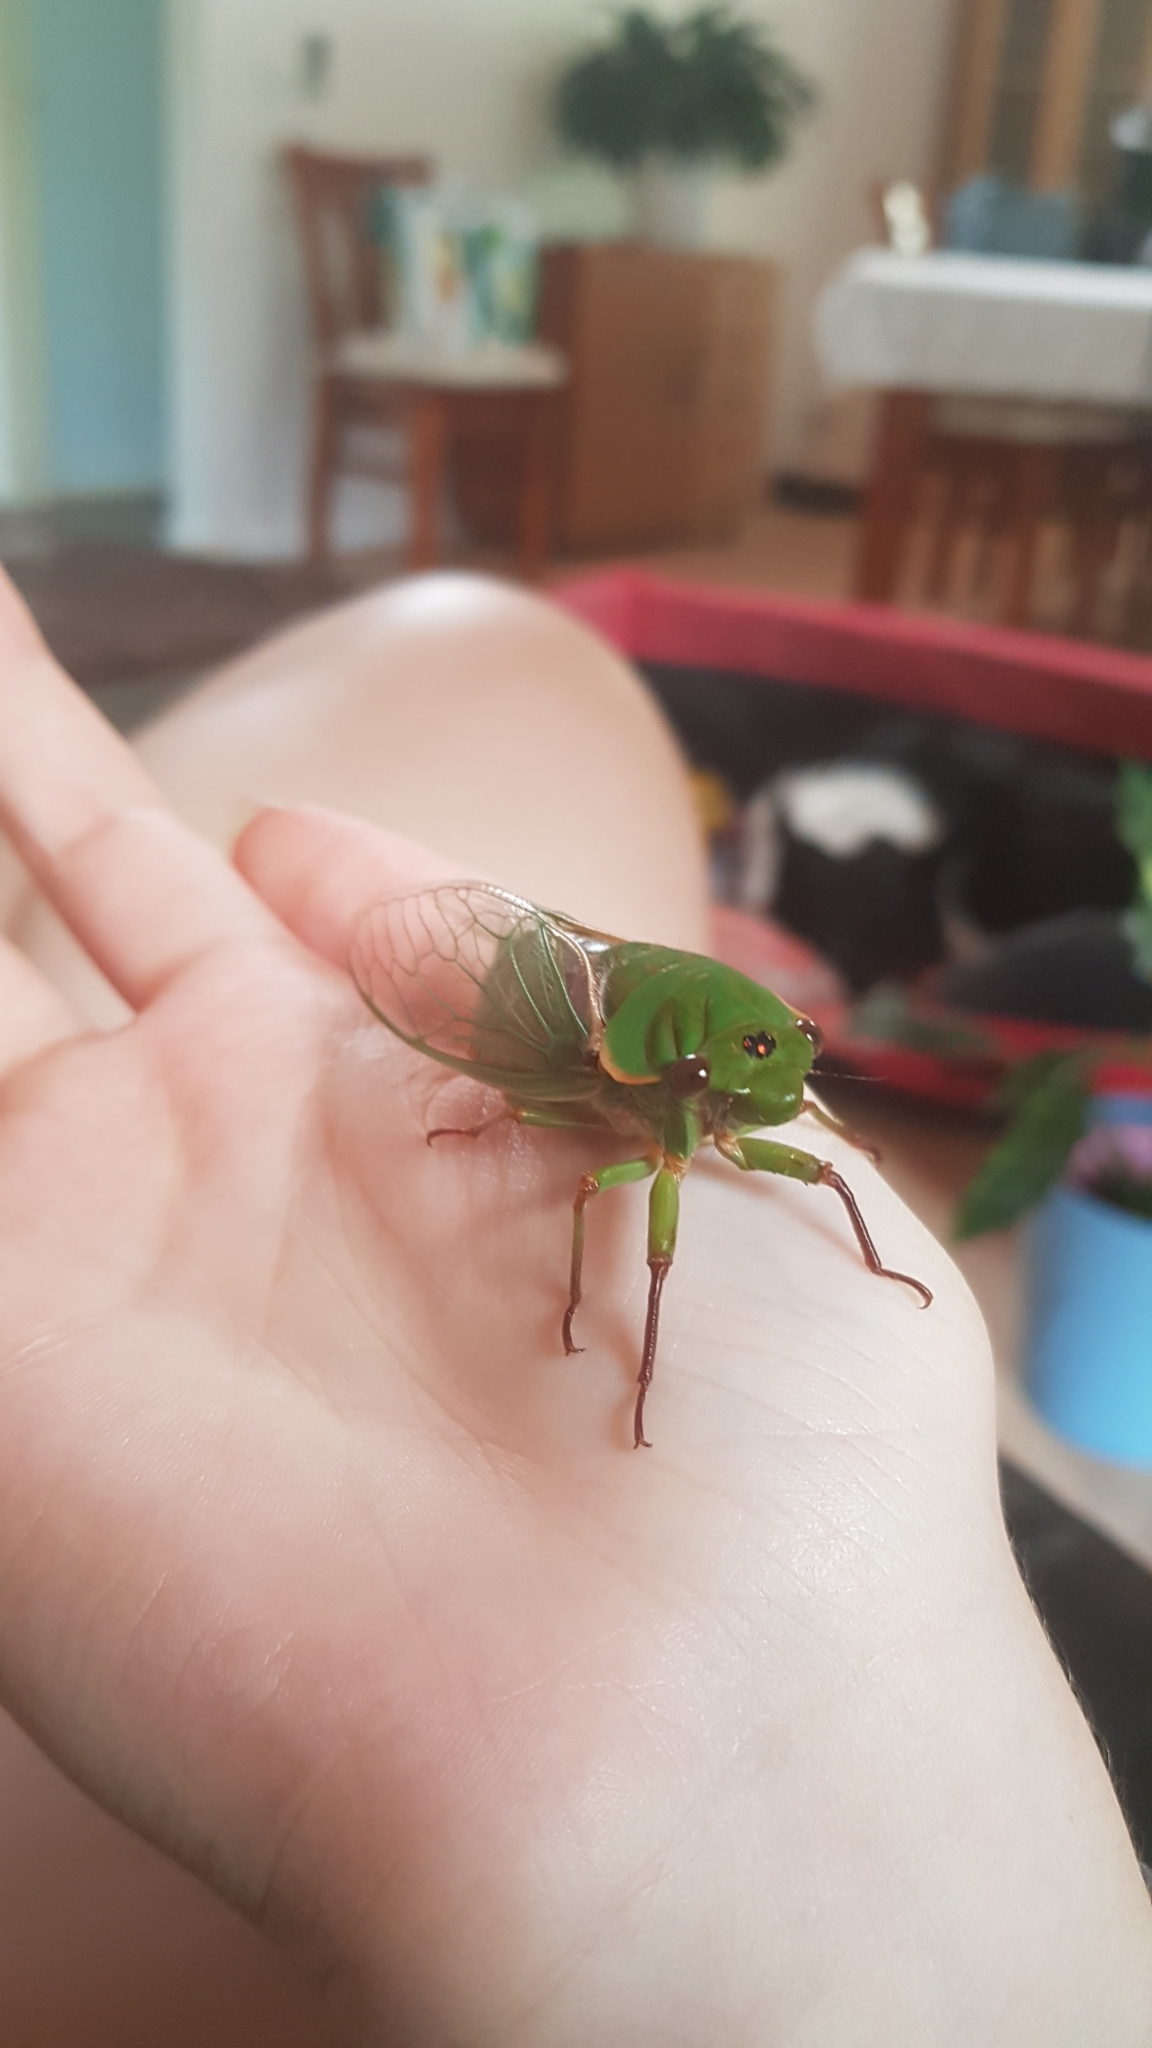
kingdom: Animalia
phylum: Arthropoda
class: Insecta
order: Hemiptera
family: Cicadidae
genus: Cyclochila
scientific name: Cyclochila australasiae
